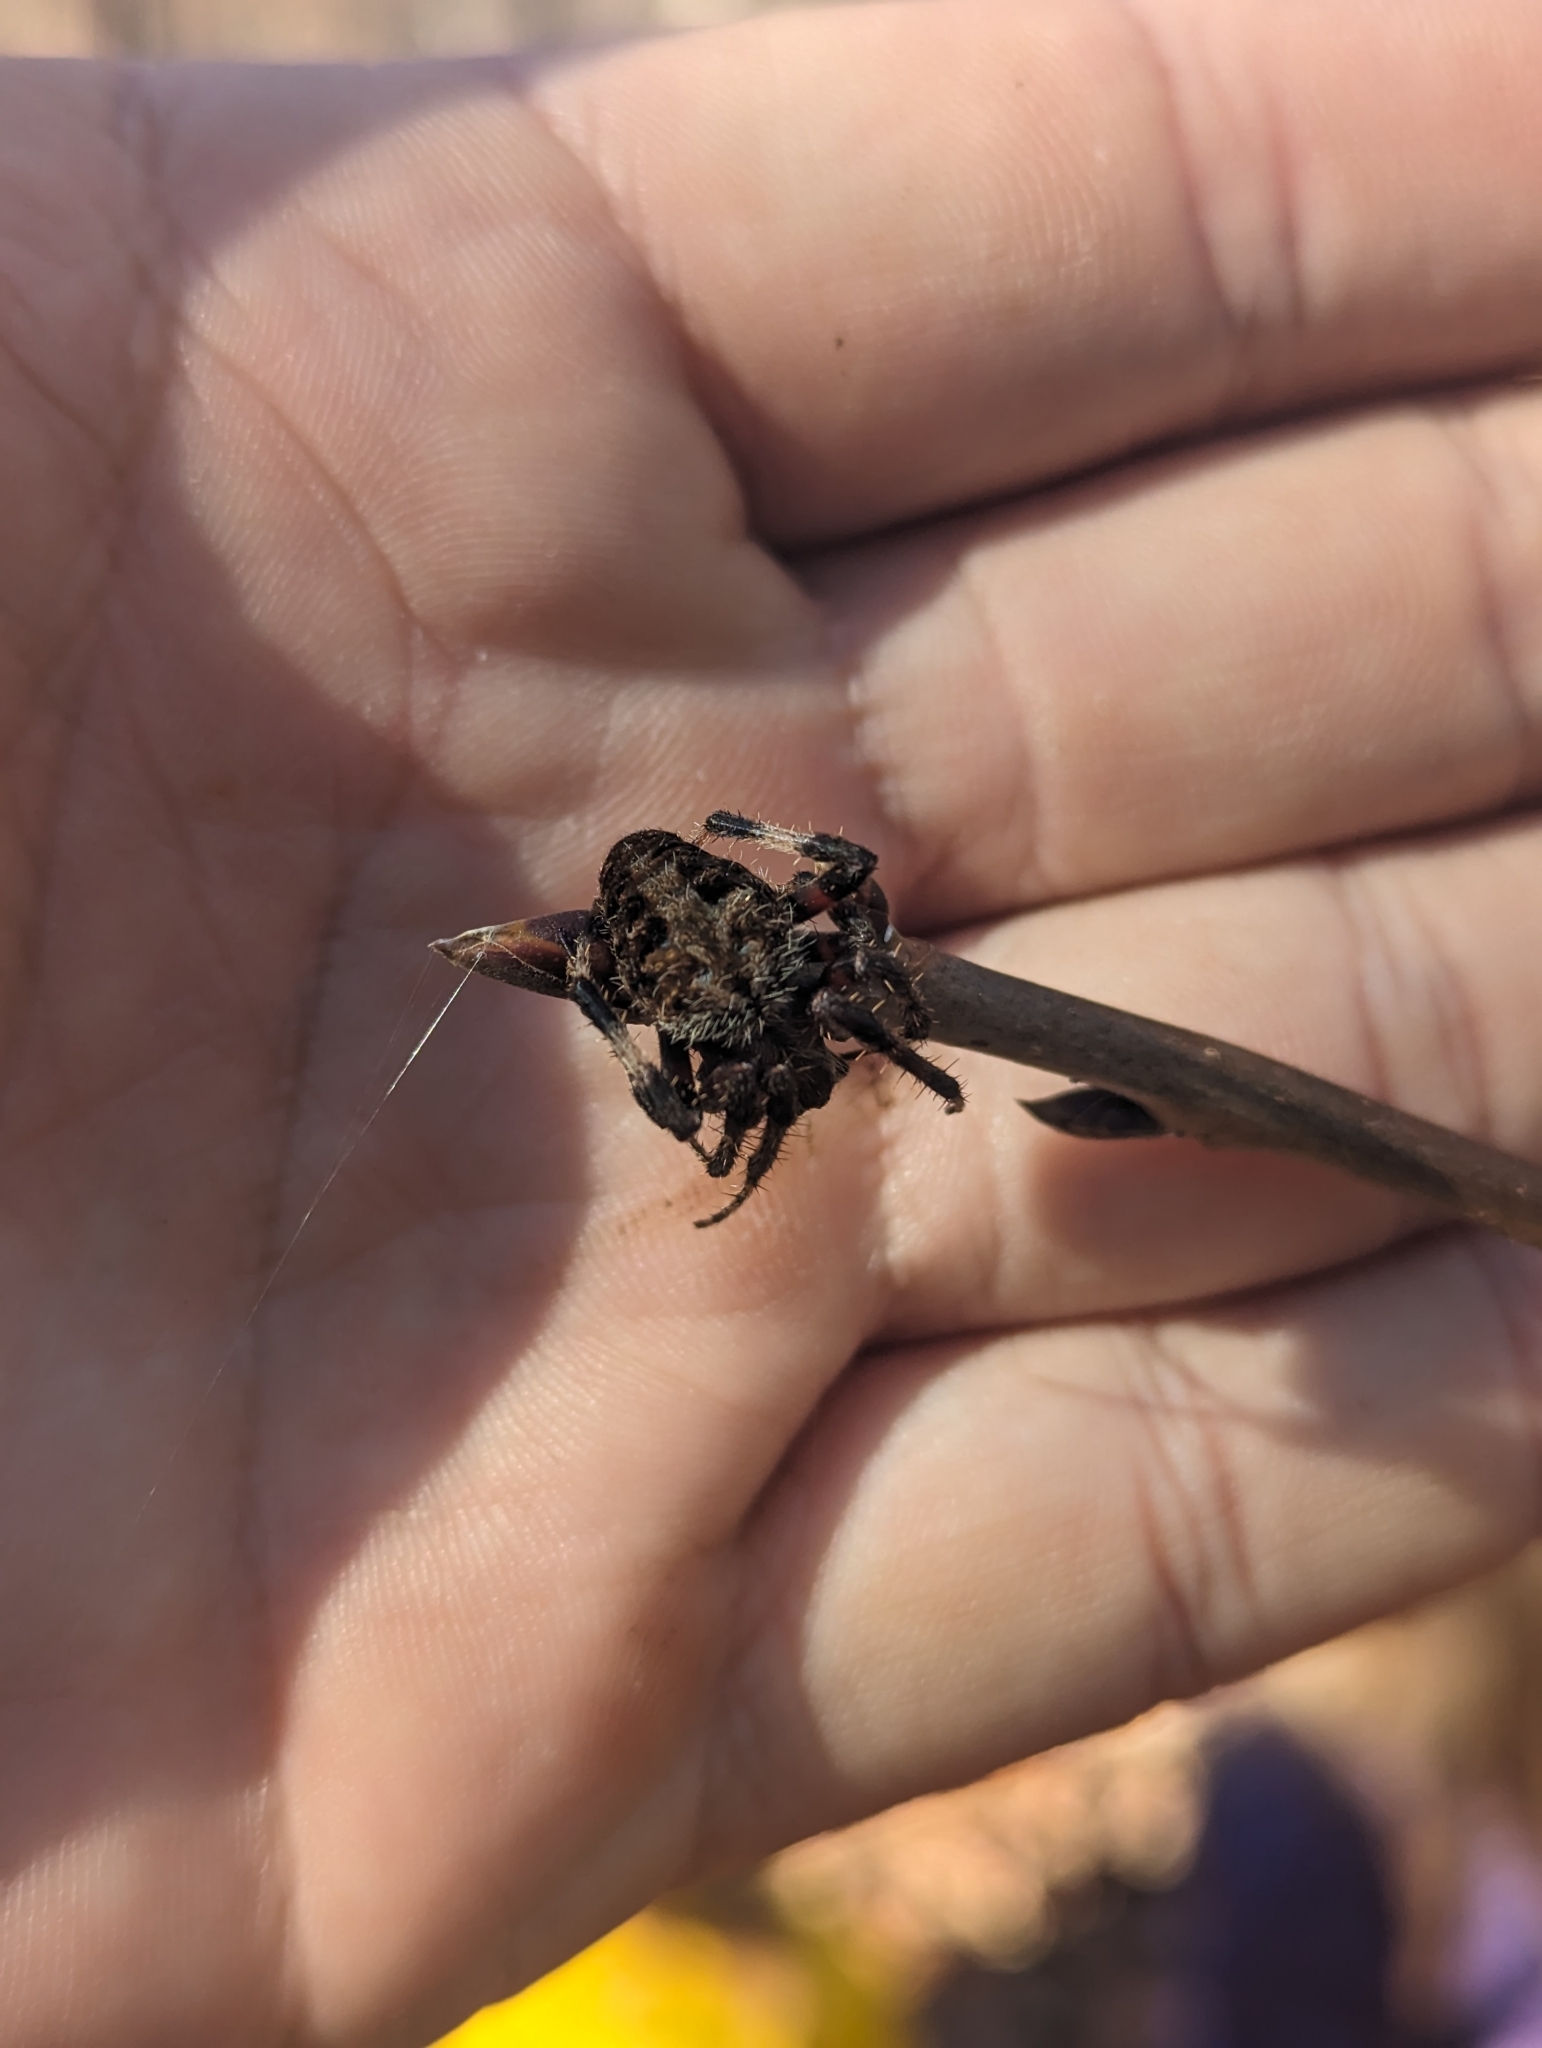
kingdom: Animalia
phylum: Arthropoda
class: Arachnida
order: Araneae
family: Araneidae
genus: Neoscona
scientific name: Neoscona crucifera
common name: Spotted orbweaver
